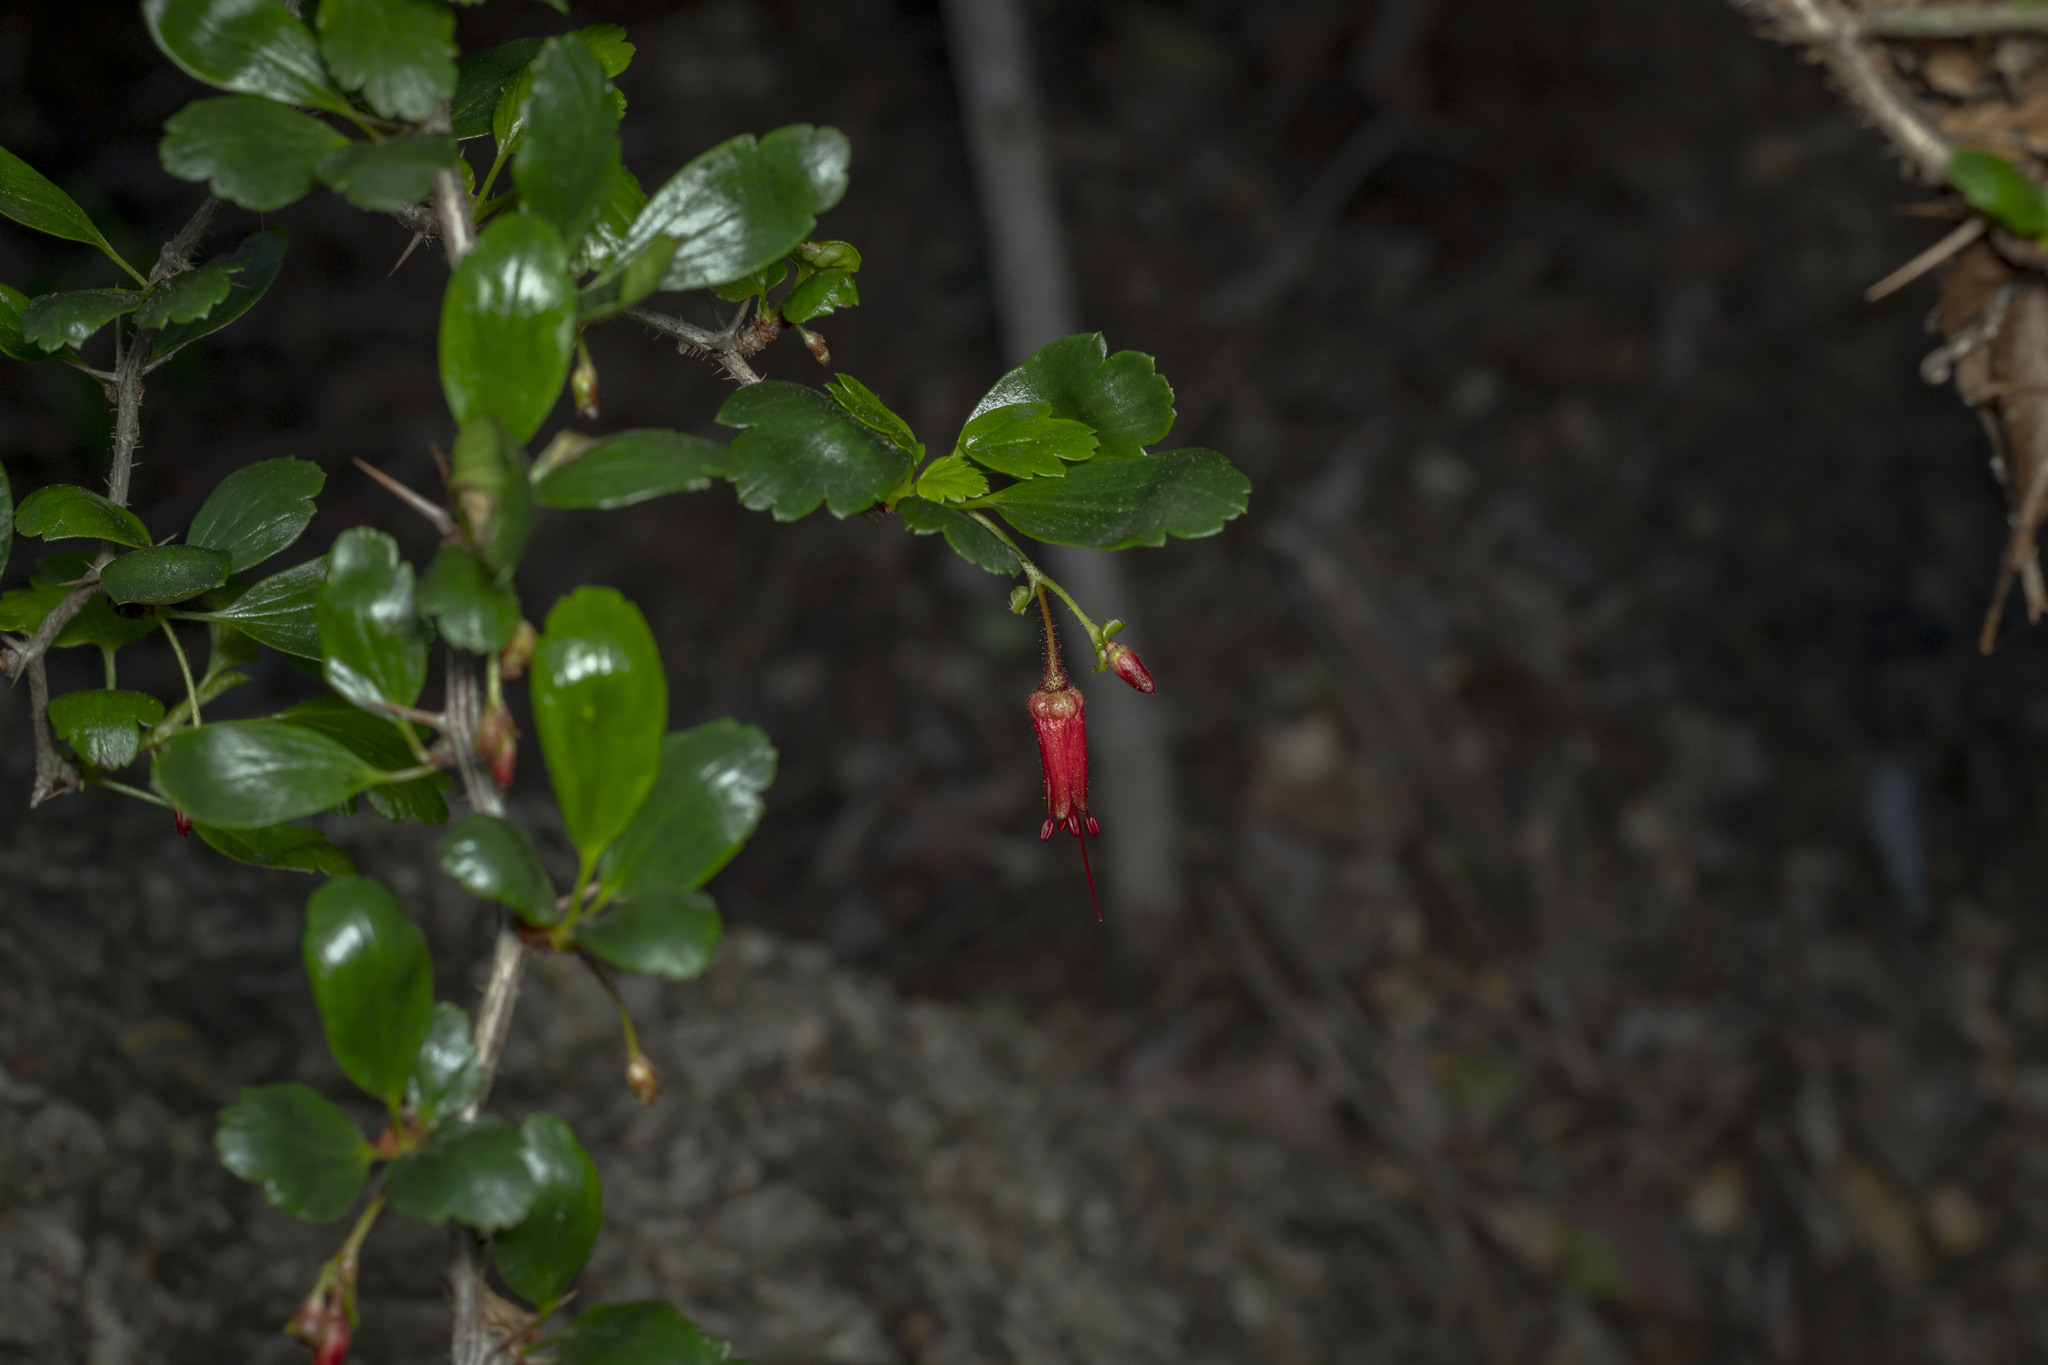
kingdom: Plantae
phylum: Tracheophyta
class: Magnoliopsida
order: Saxifragales
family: Grossulariaceae
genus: Ribes
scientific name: Ribes speciosum
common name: Fuchsia-flower gooseberry
